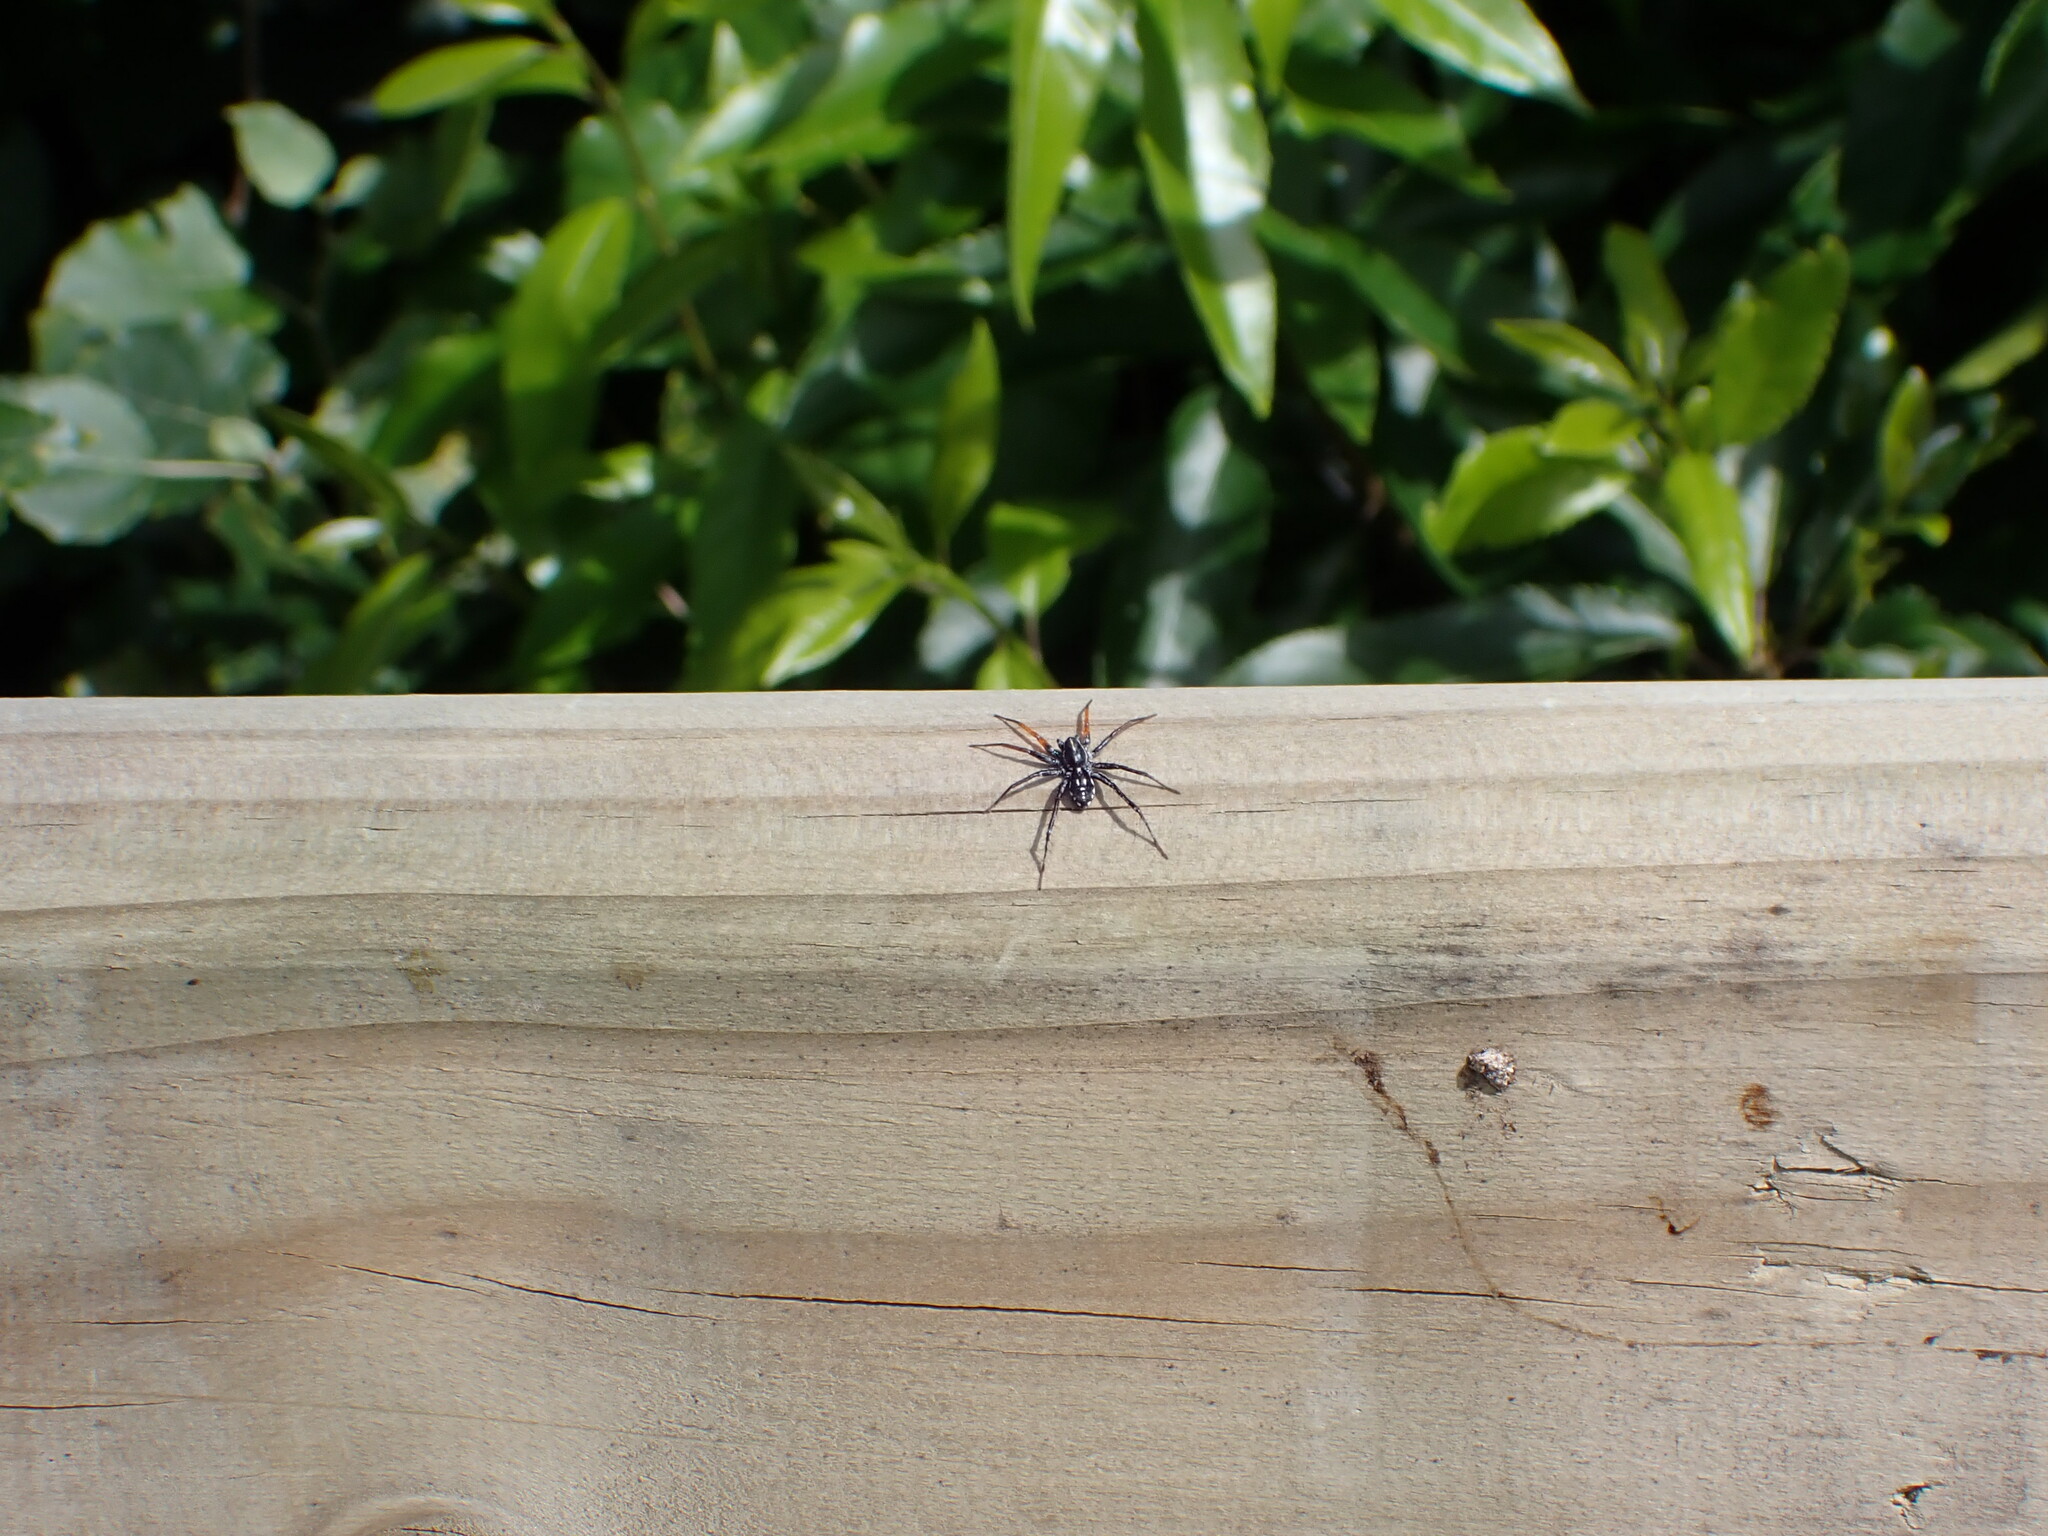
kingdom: Animalia
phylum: Arthropoda
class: Arachnida
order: Araneae
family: Corinnidae
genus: Nyssus
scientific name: Nyssus coloripes
